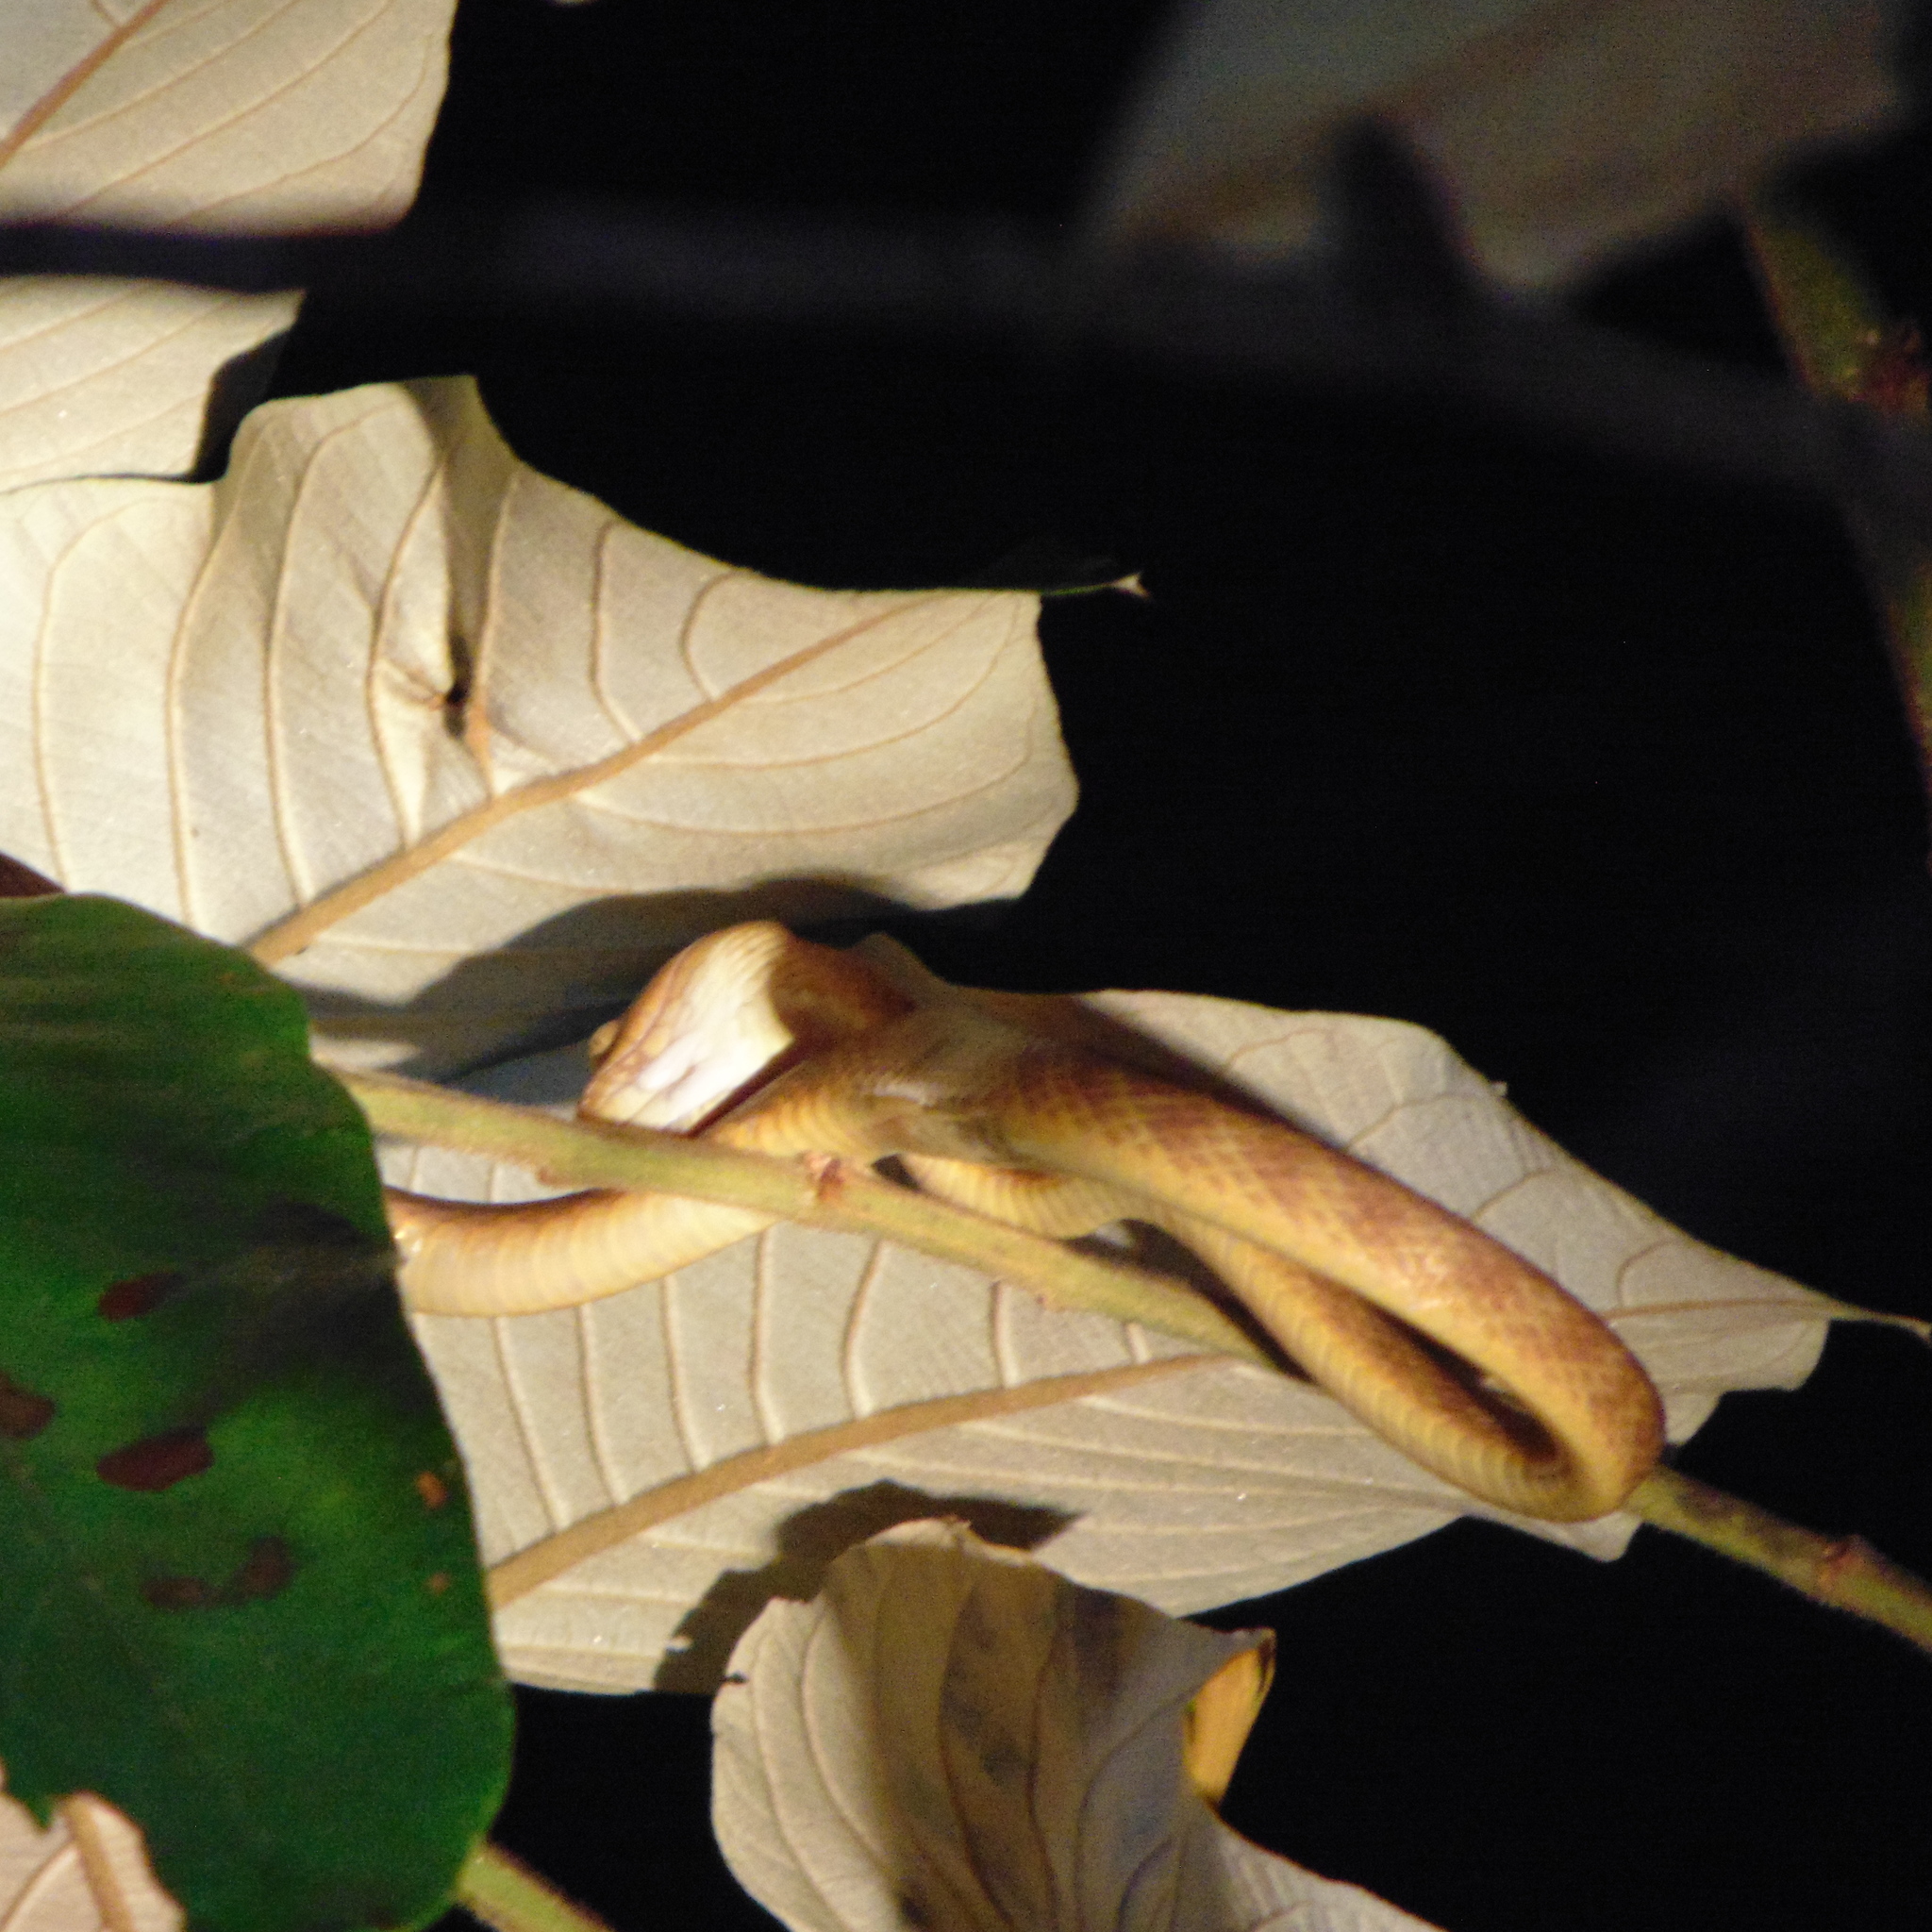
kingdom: Animalia
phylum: Chordata
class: Squamata
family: Colubridae
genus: Boiga
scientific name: Boiga irregularis
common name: Brown tree snake
